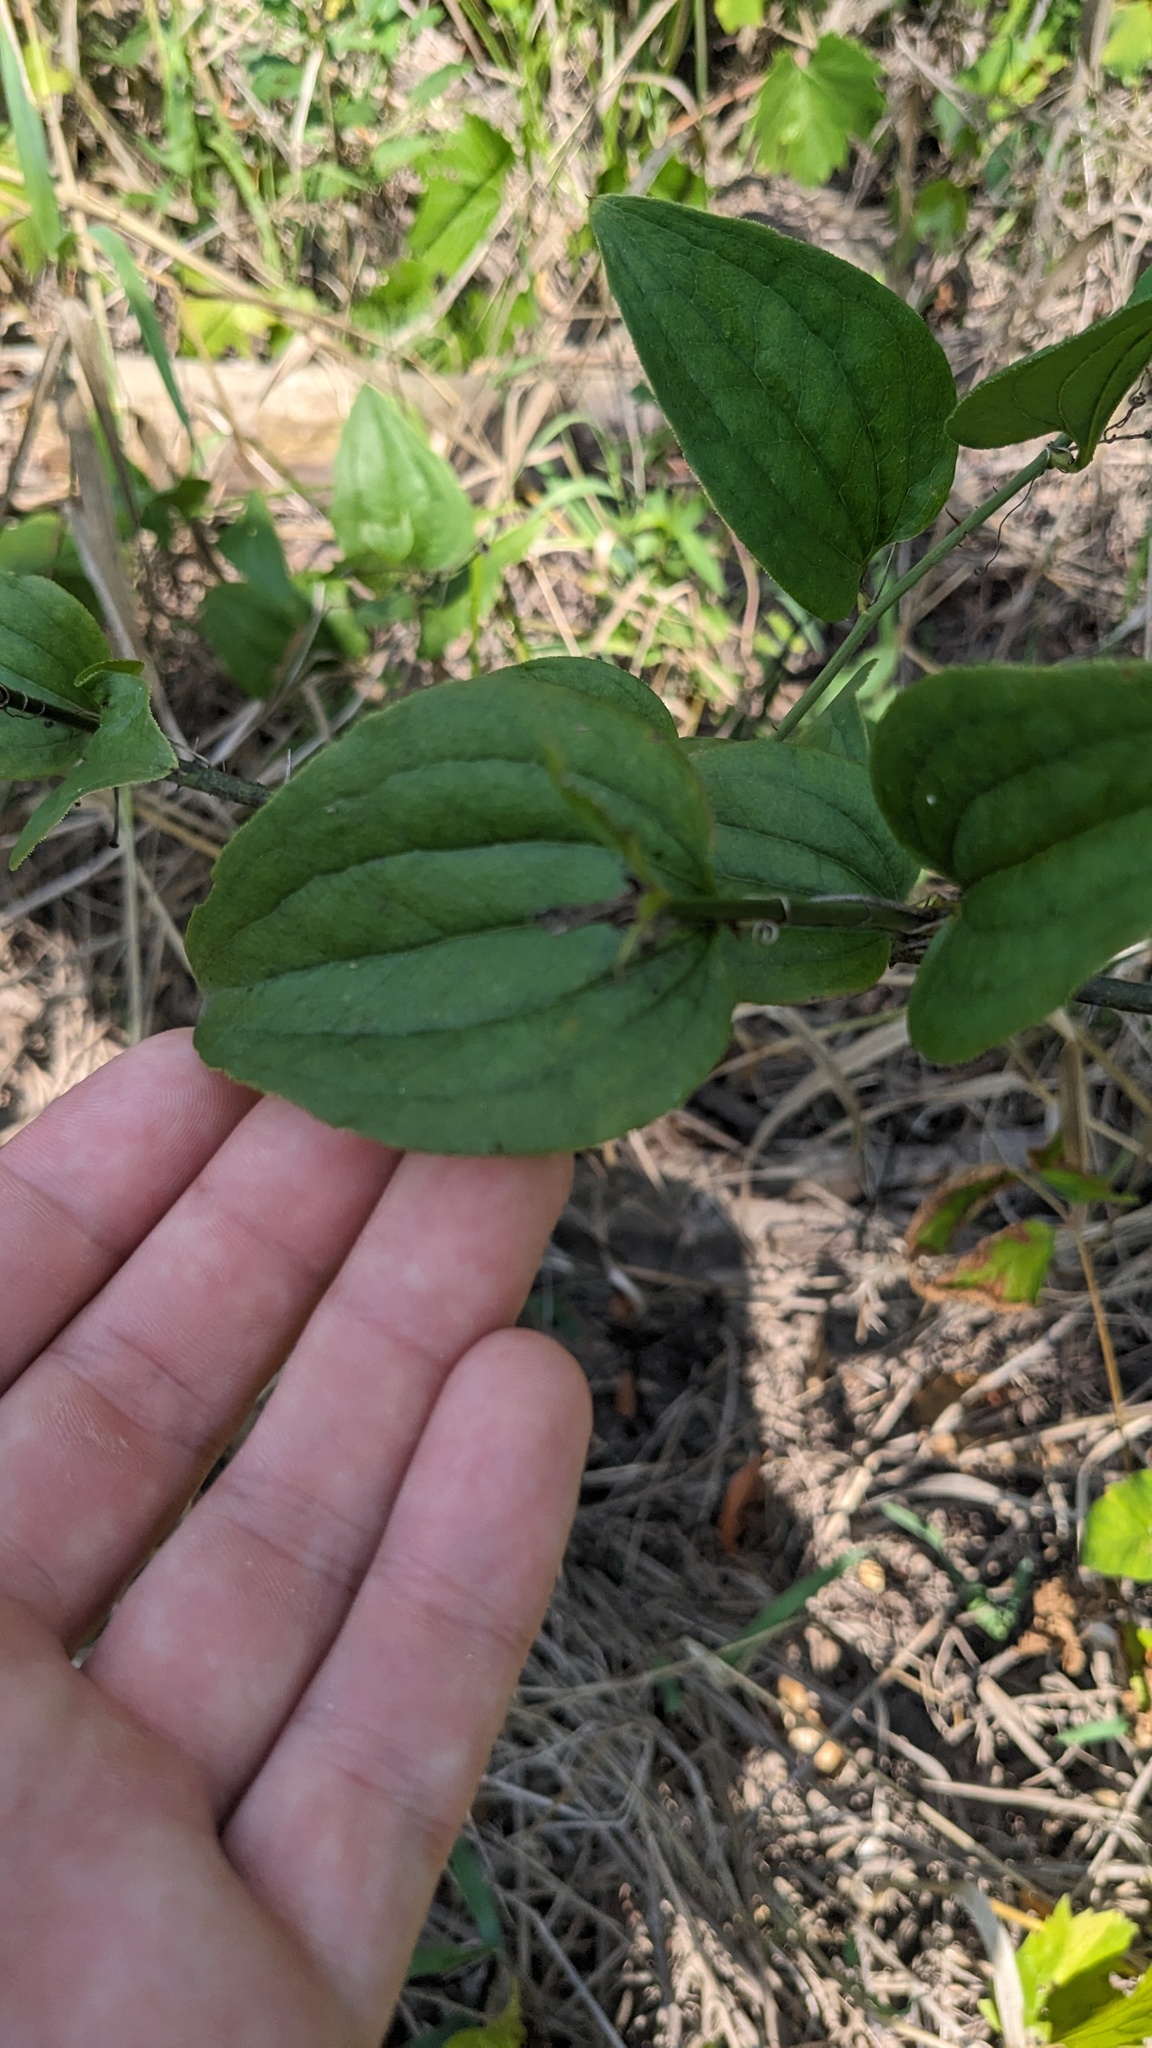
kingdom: Plantae
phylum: Tracheophyta
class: Liliopsida
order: Liliales
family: Smilacaceae
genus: Smilax
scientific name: Smilax tamnoides
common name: Hellfetter
